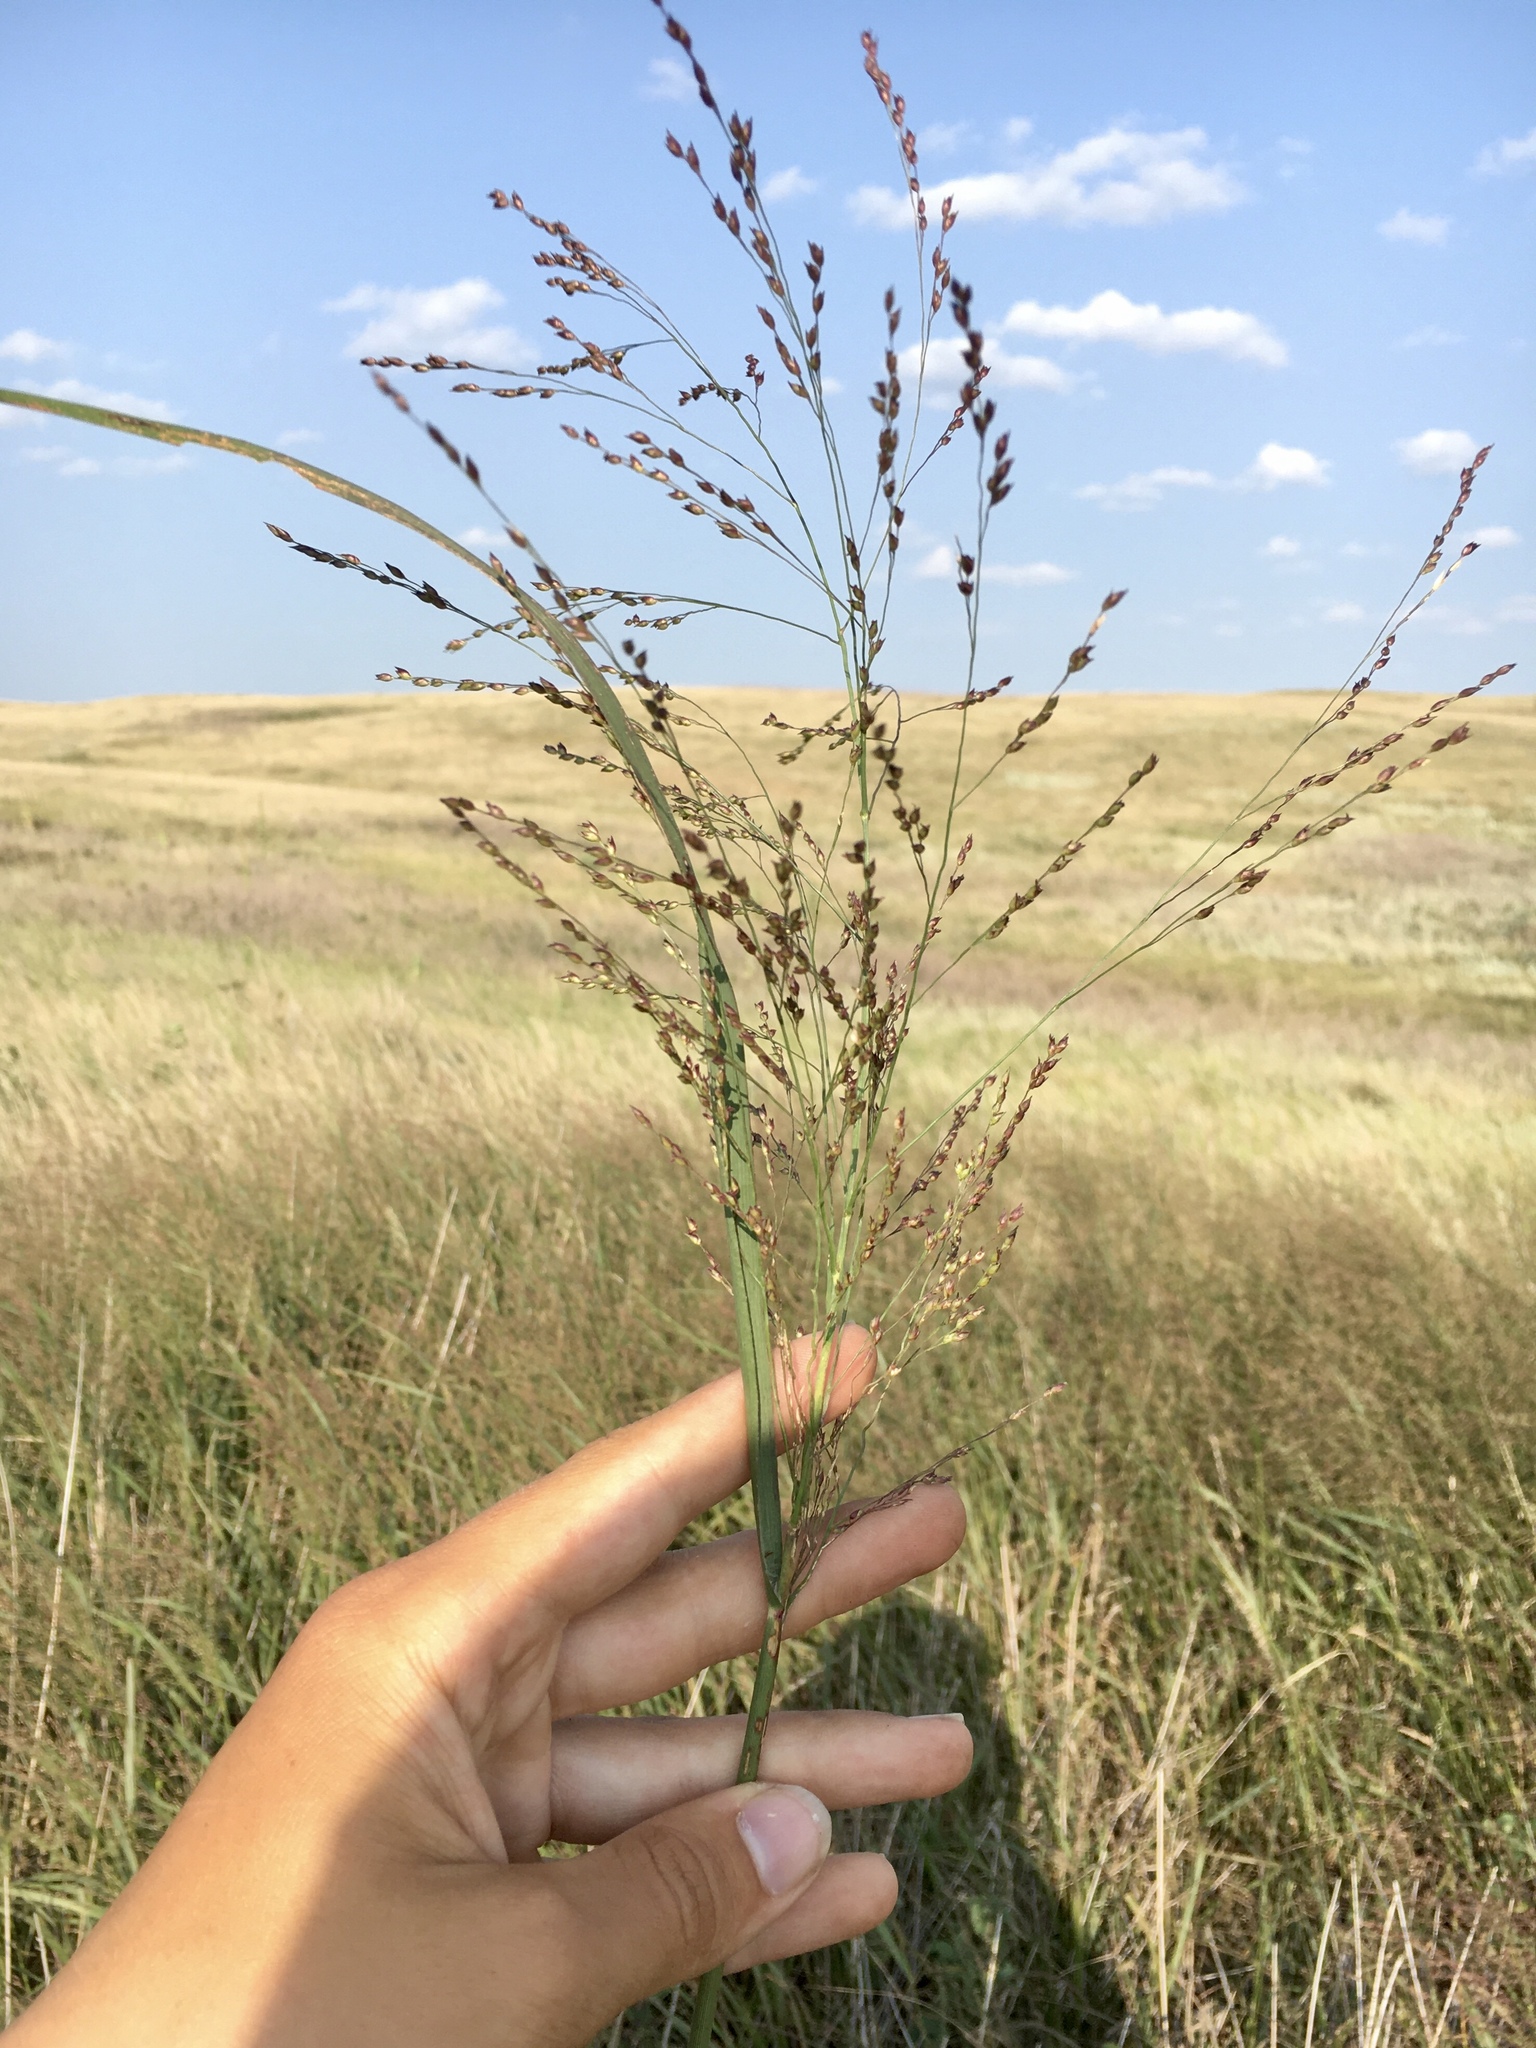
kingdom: Plantae
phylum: Tracheophyta
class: Liliopsida
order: Poales
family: Poaceae
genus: Panicum
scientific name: Panicum virgatum
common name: Switchgrass
